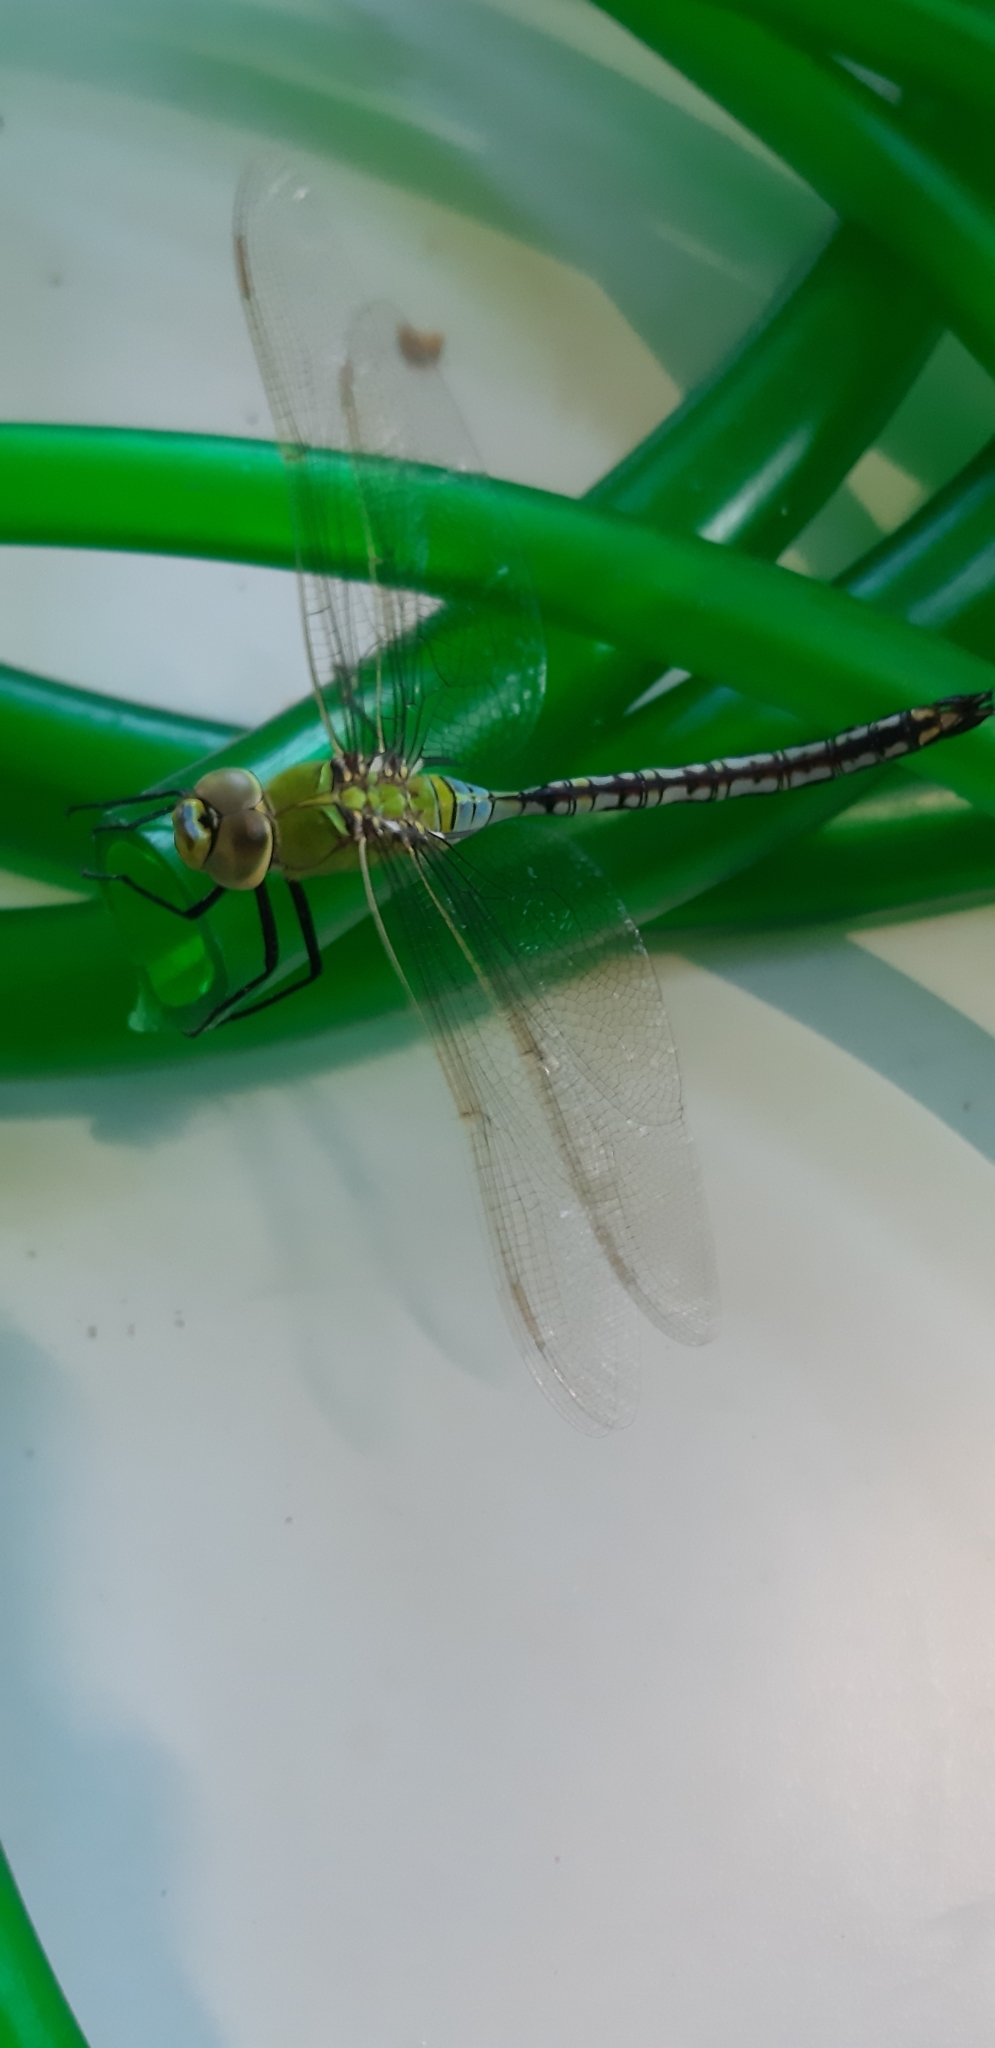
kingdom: Animalia
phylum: Arthropoda
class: Insecta
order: Odonata
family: Aeshnidae
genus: Anax
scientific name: Anax imperator
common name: Emperor dragonfly
